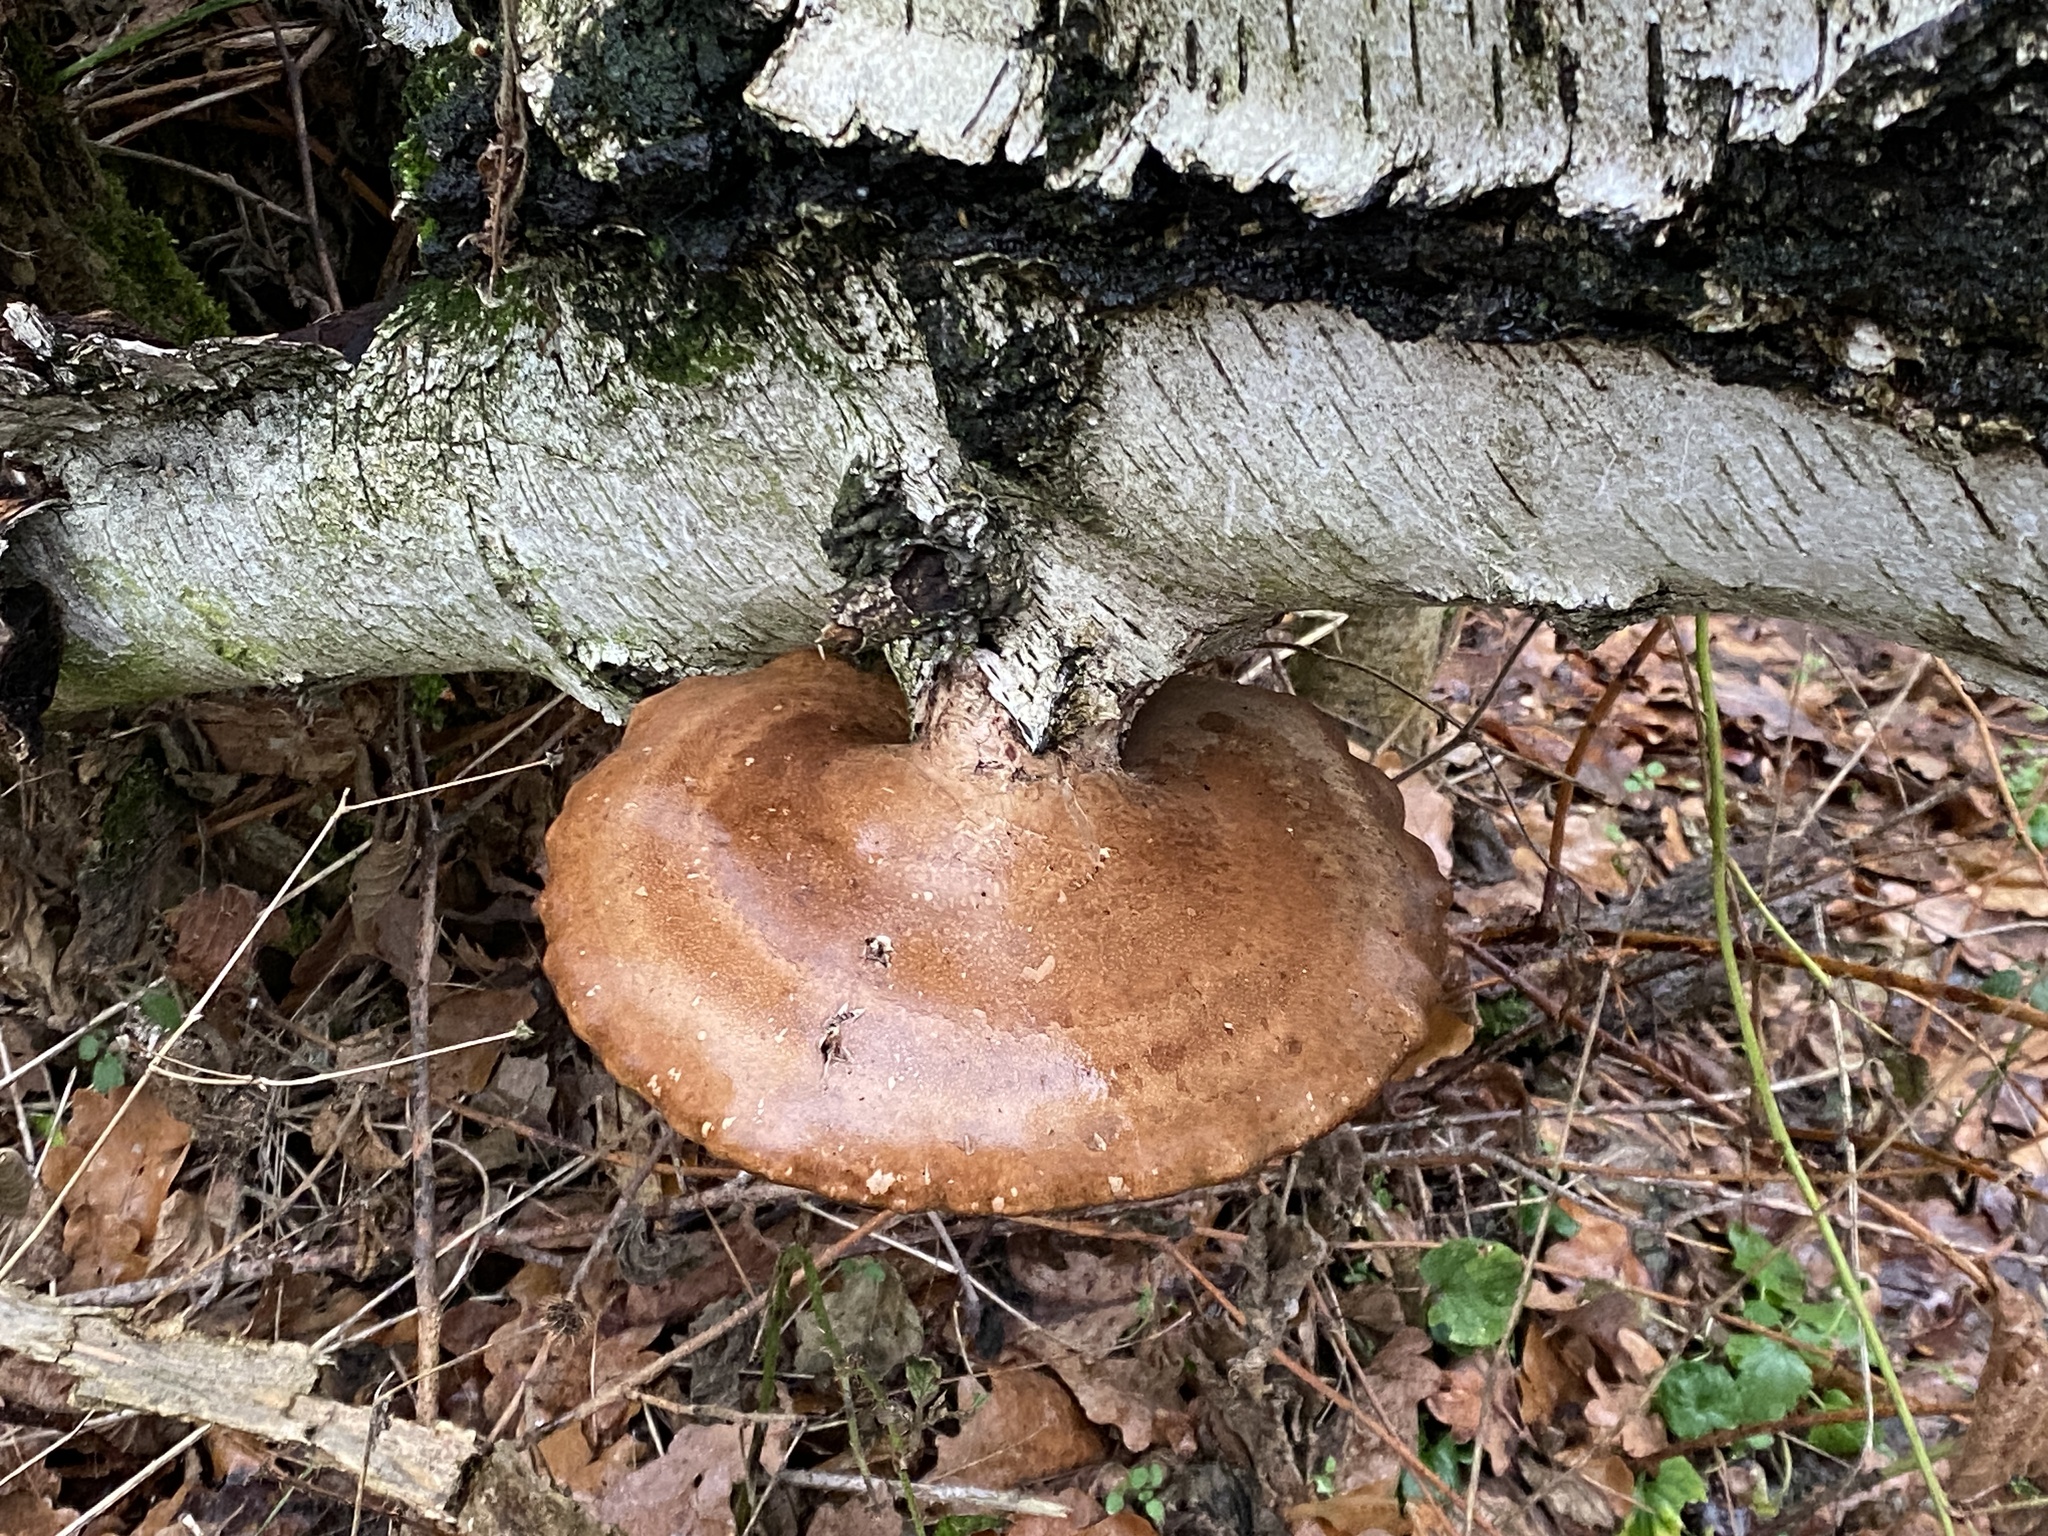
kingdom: Fungi
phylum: Basidiomycota
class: Agaricomycetes
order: Polyporales
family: Fomitopsidaceae
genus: Fomitopsis
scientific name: Fomitopsis betulina
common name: Birch polypore
